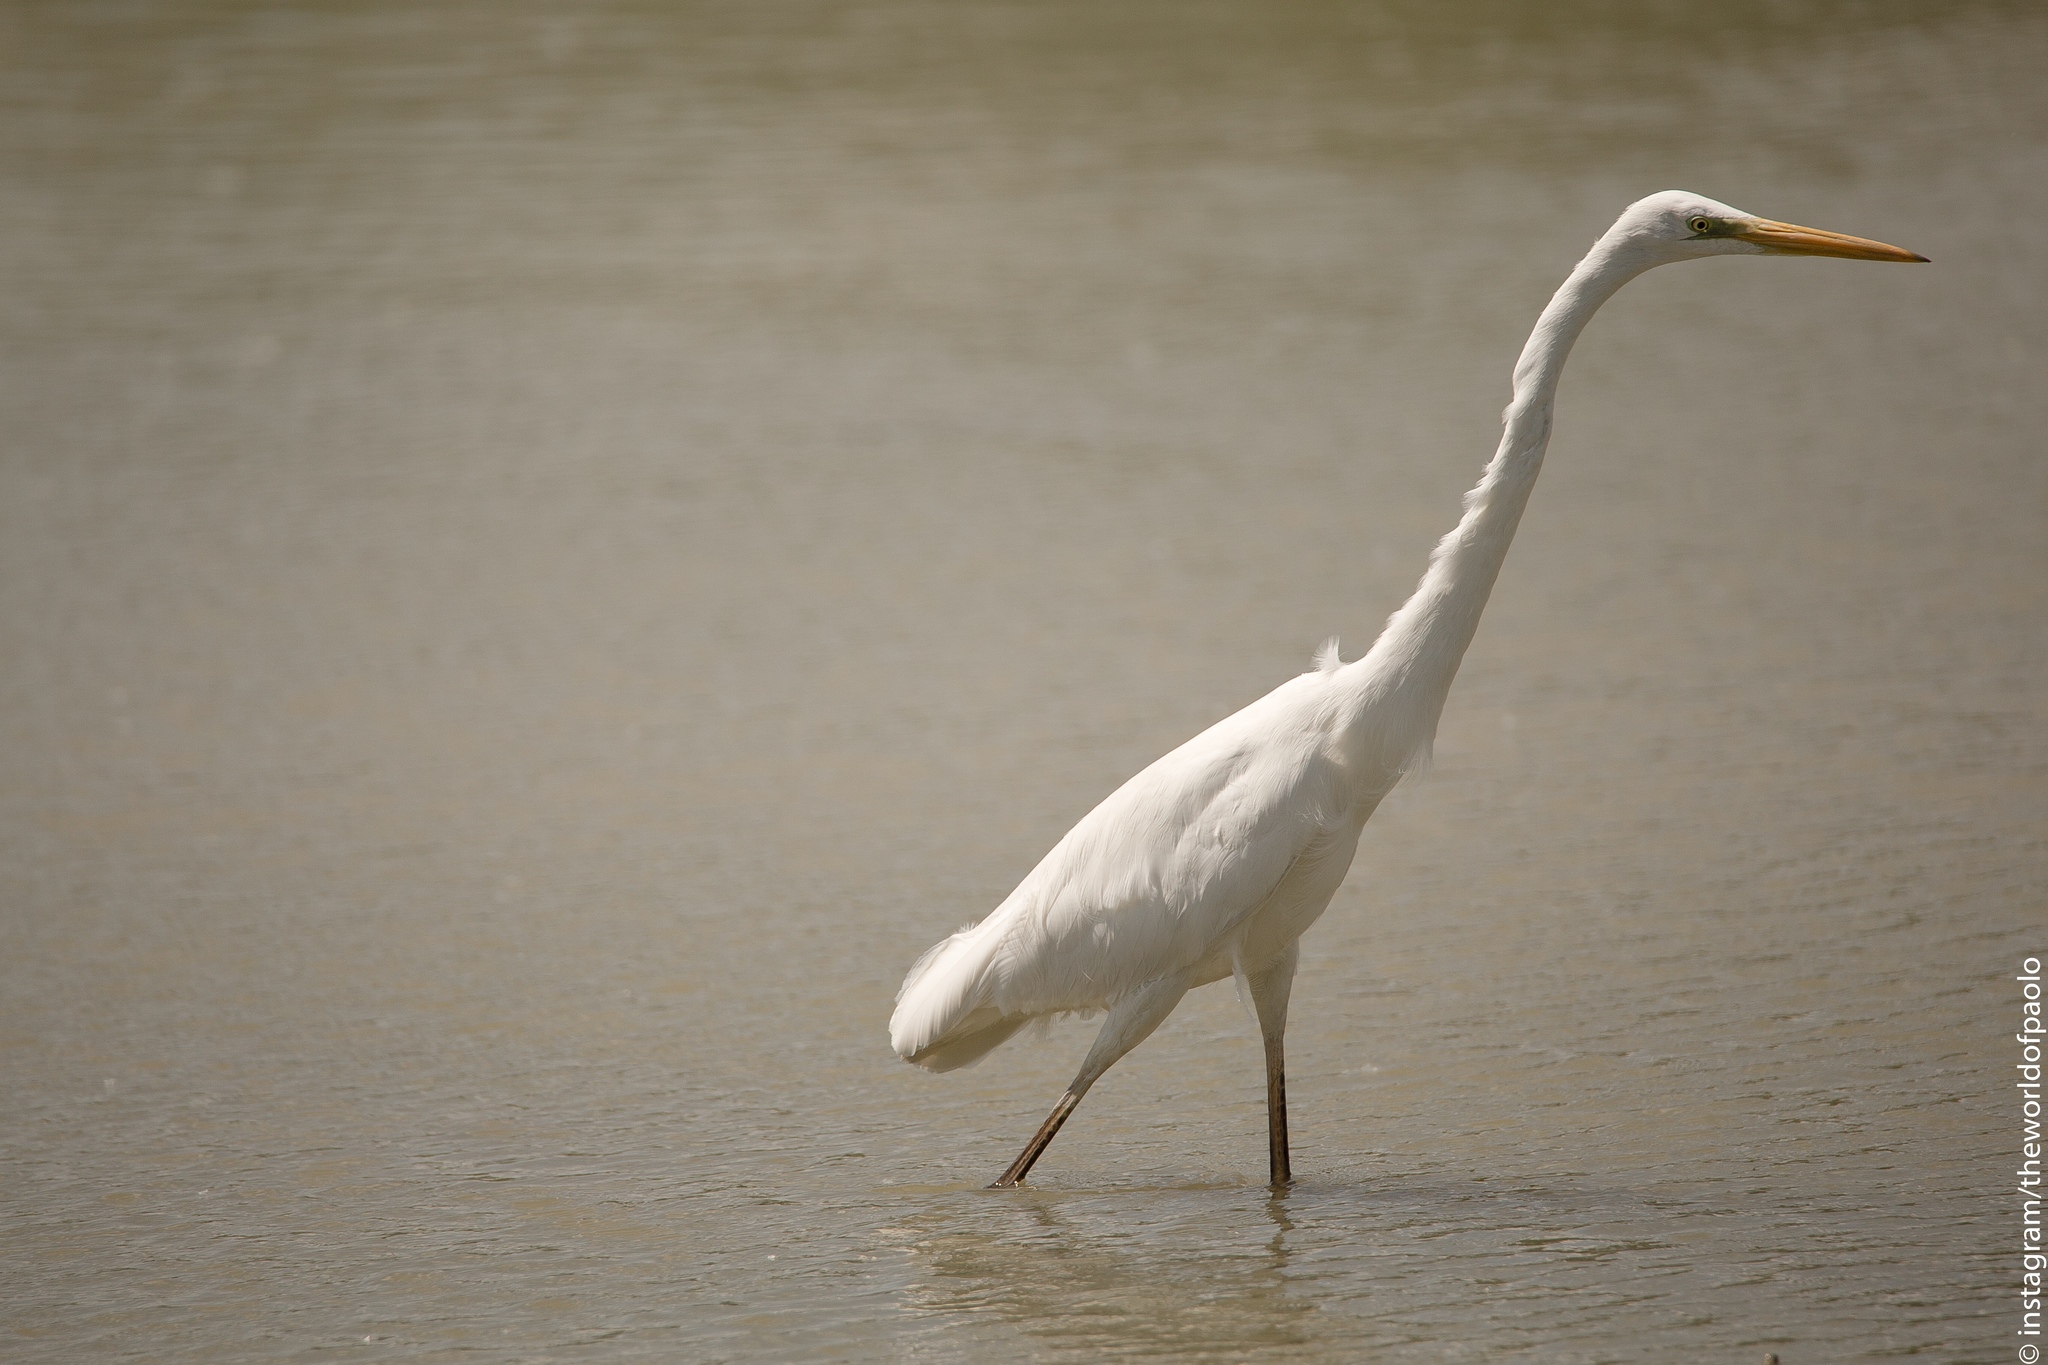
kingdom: Animalia
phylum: Chordata
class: Aves
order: Pelecaniformes
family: Ardeidae
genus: Ardea
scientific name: Ardea alba
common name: Great egret
